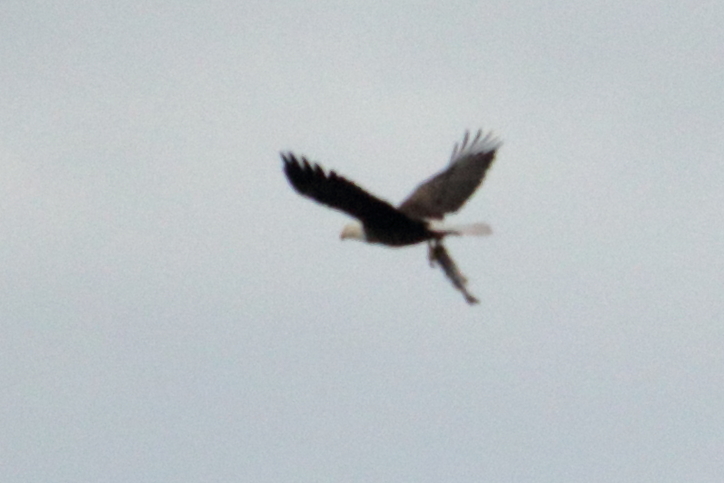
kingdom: Animalia
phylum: Chordata
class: Aves
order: Accipitriformes
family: Accipitridae
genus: Haliaeetus
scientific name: Haliaeetus leucocephalus
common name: Bald eagle
